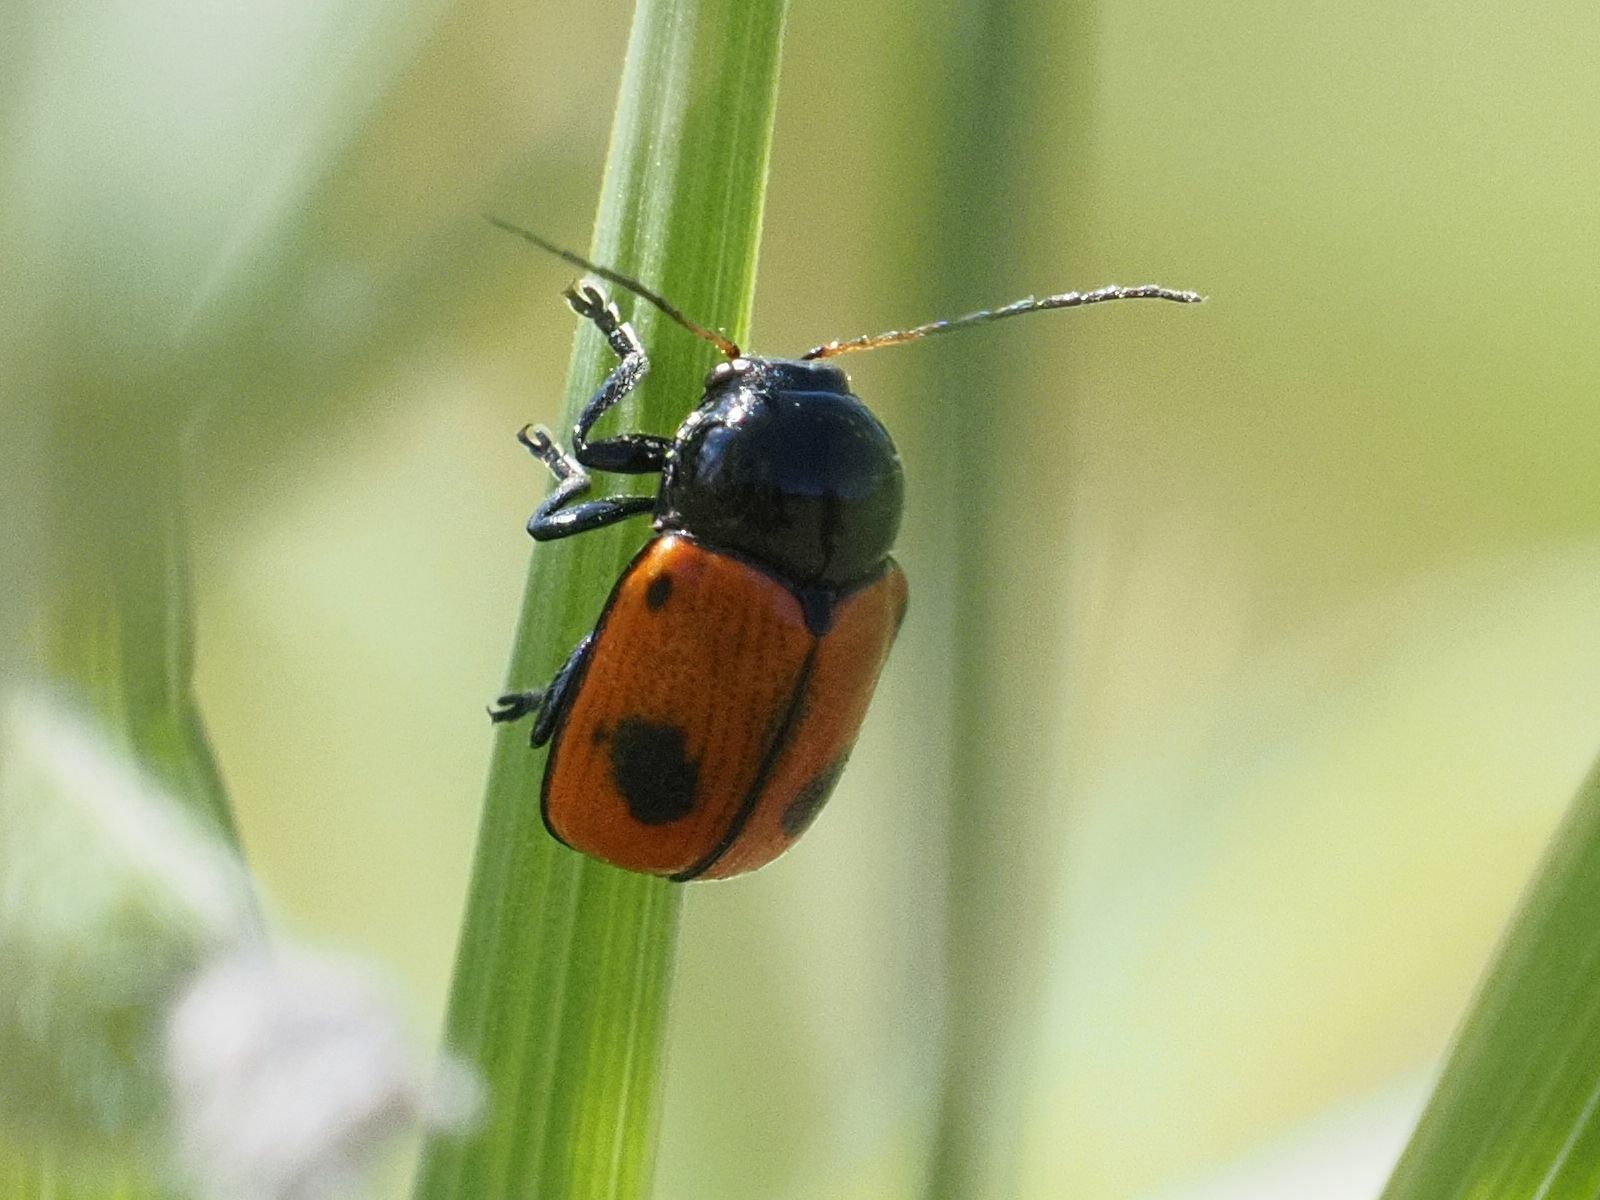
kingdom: Animalia
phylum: Arthropoda
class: Insecta
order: Coleoptera
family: Chrysomelidae
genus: Chiridopsis
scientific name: Chiridopsis bipunctata
